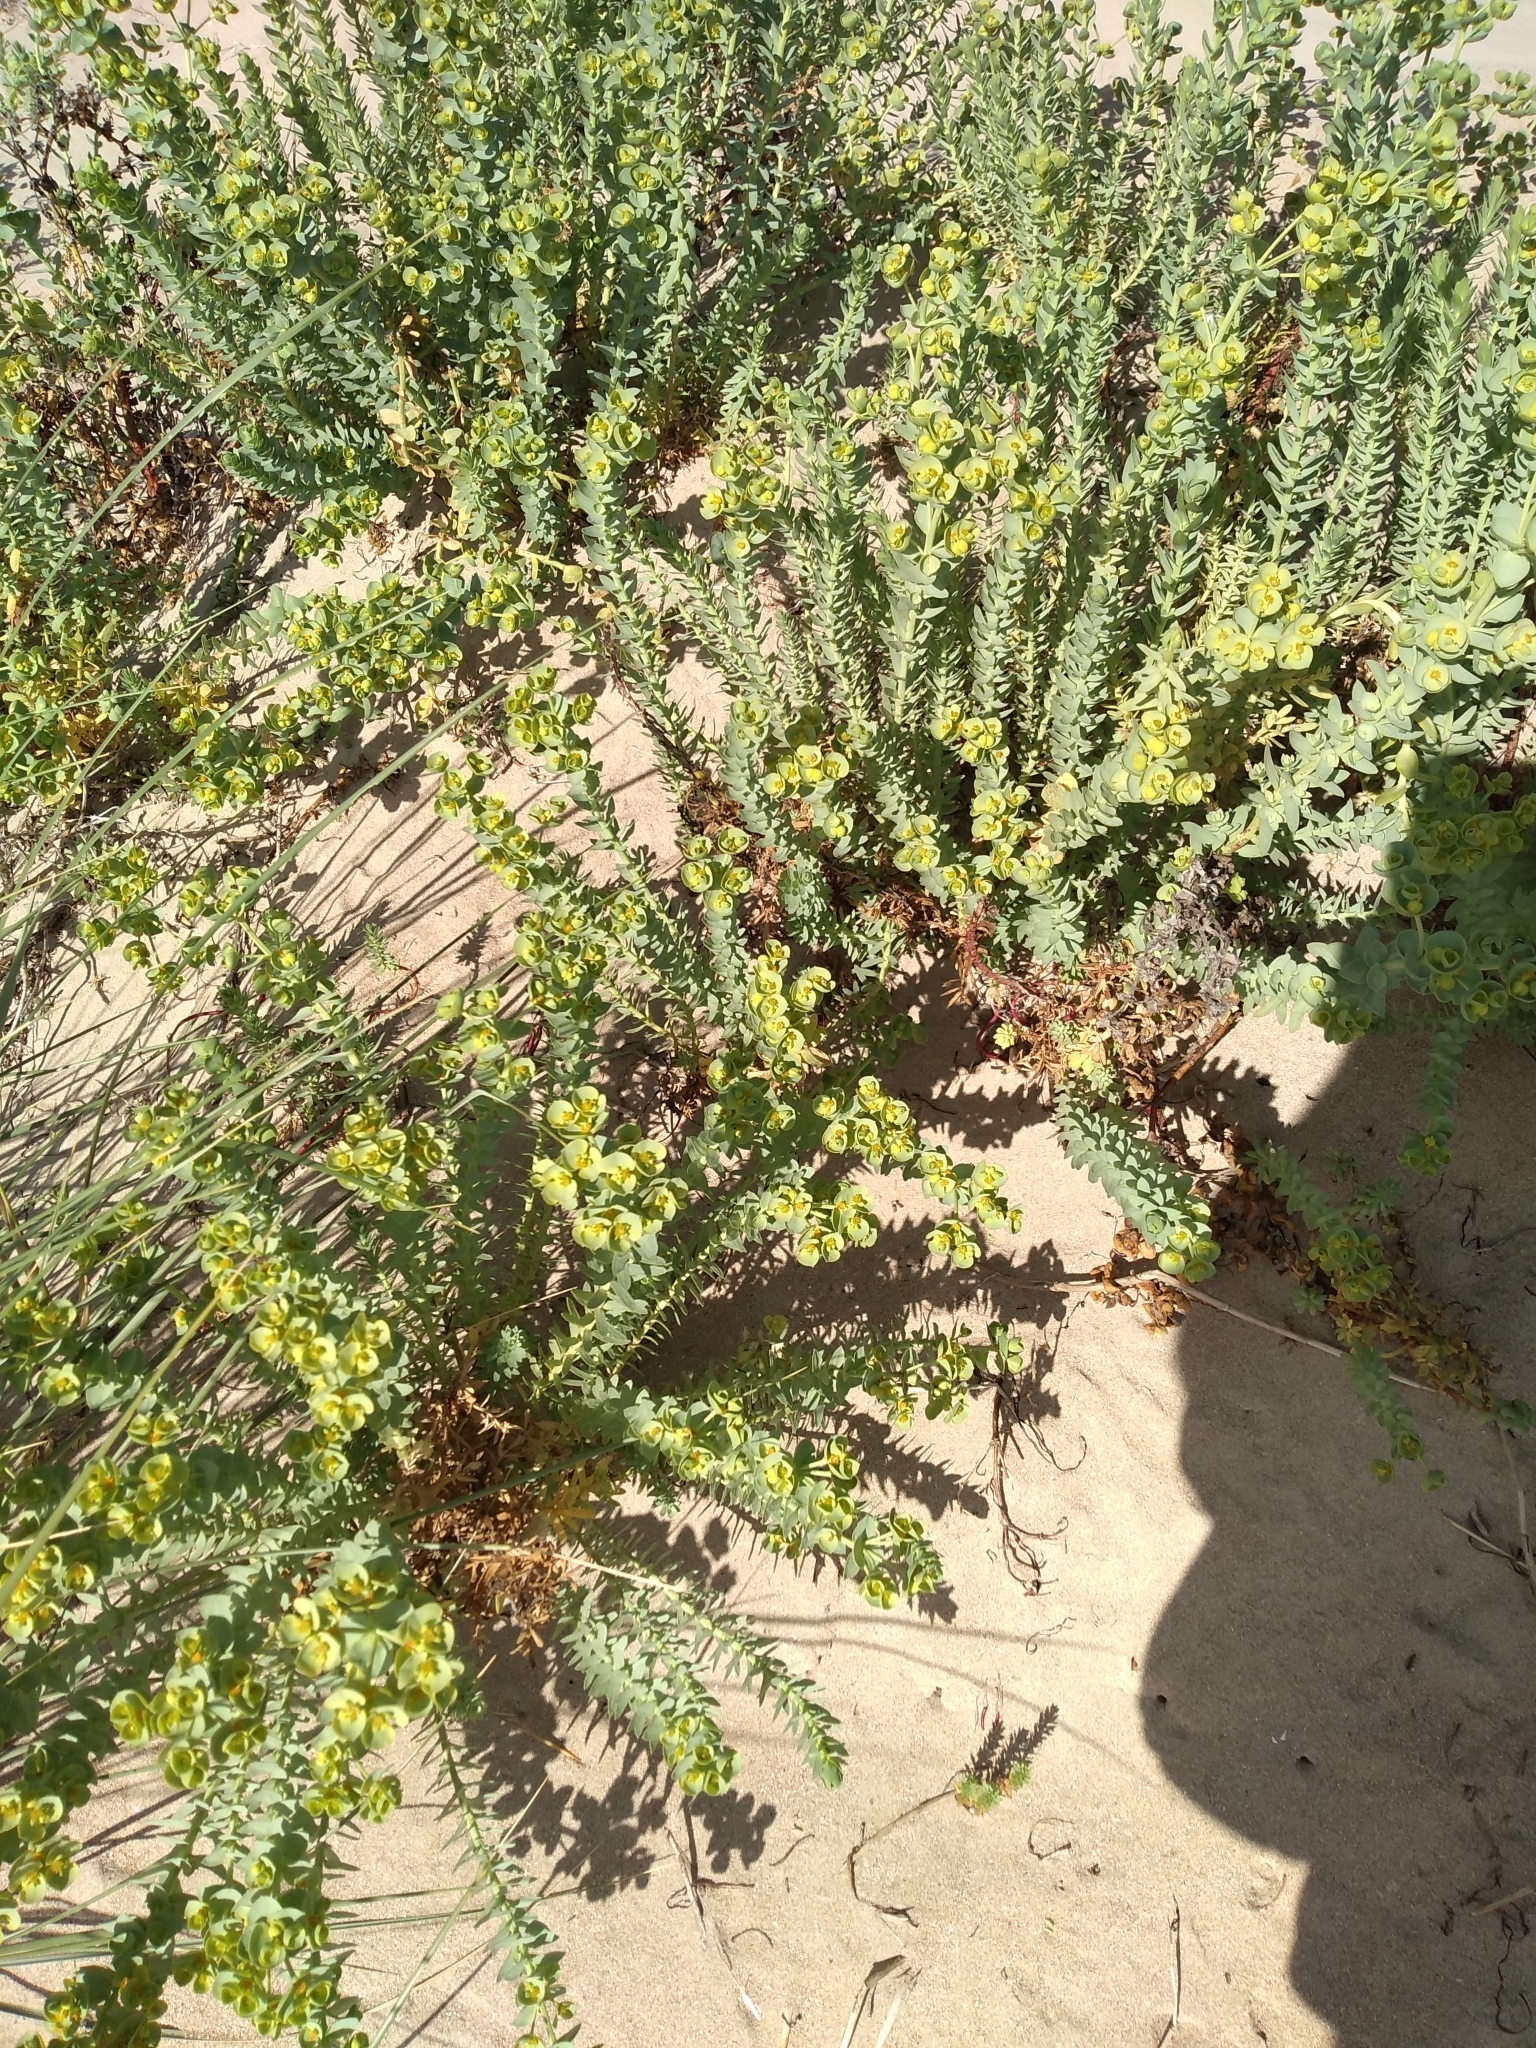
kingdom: Plantae
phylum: Tracheophyta
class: Magnoliopsida
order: Malpighiales
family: Euphorbiaceae
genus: Euphorbia
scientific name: Euphorbia paralias
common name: Sea spurge
